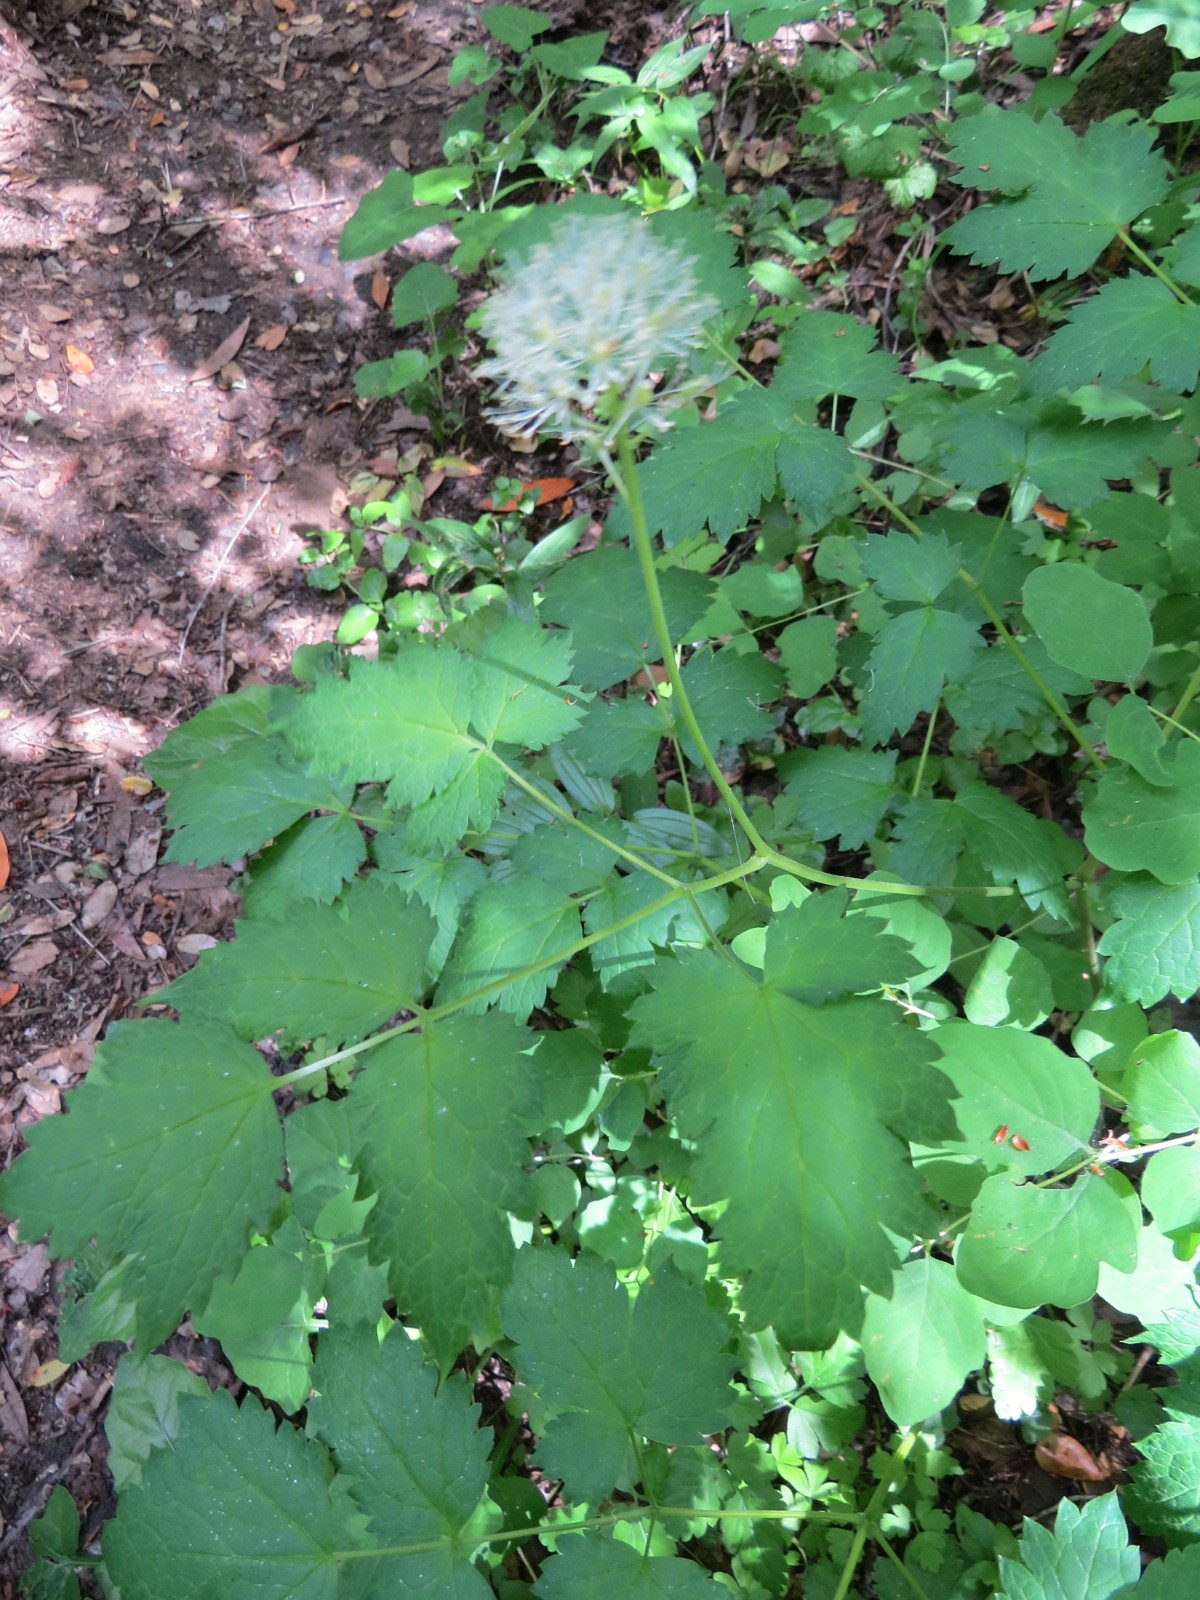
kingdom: Plantae
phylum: Tracheophyta
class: Magnoliopsida
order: Ranunculales
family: Ranunculaceae
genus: Actaea
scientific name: Actaea rubra
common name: Red baneberry
